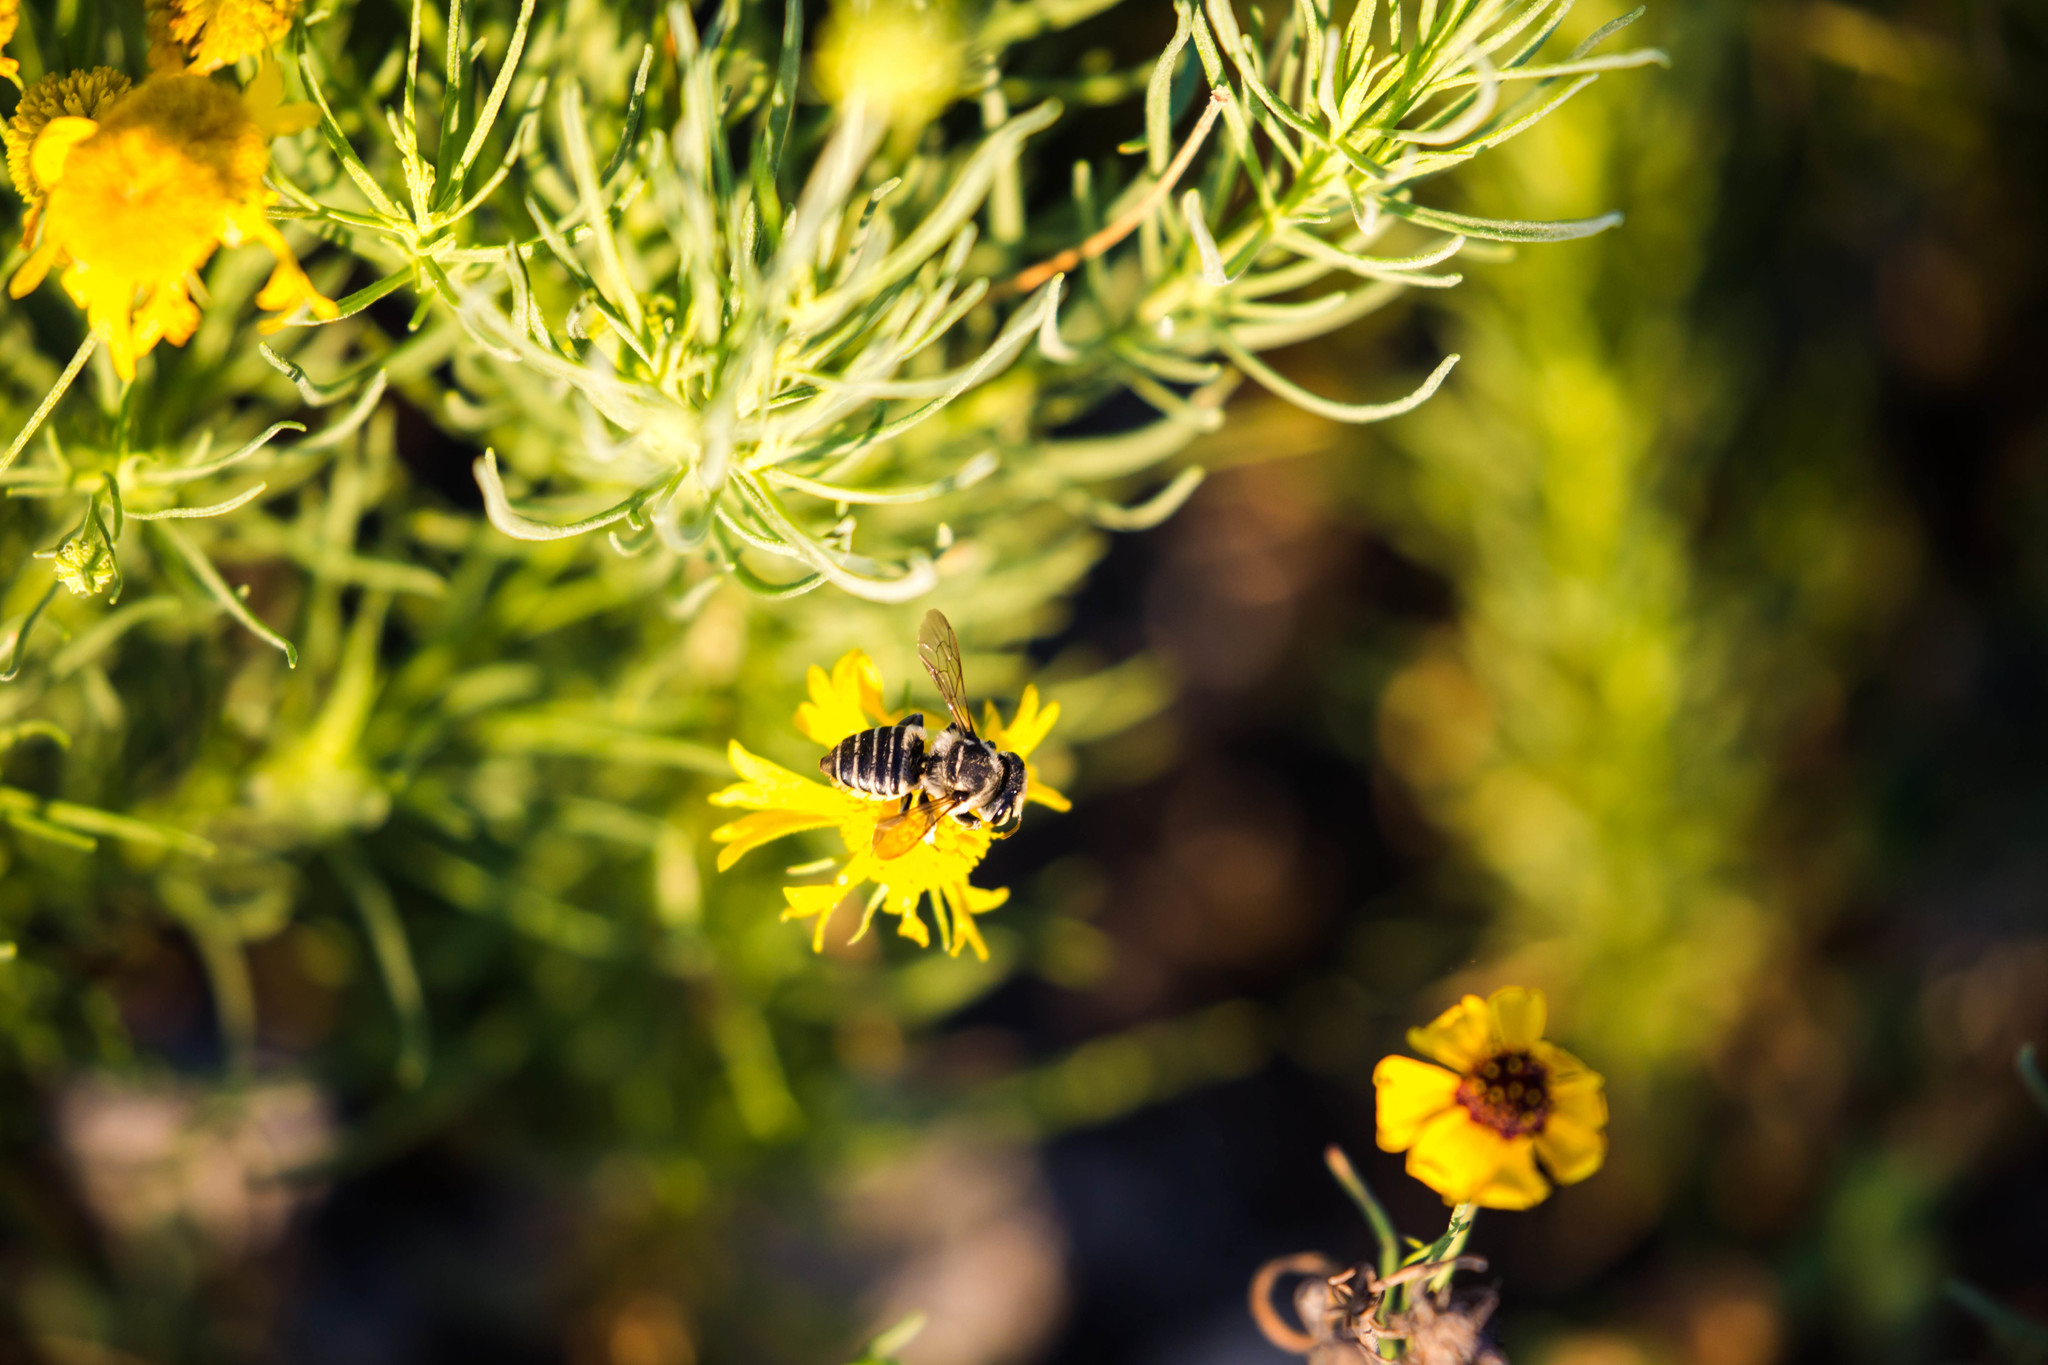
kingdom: Animalia
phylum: Arthropoda
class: Insecta
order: Hymenoptera
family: Megachilidae
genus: Megachile
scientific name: Megachile albitarsis
